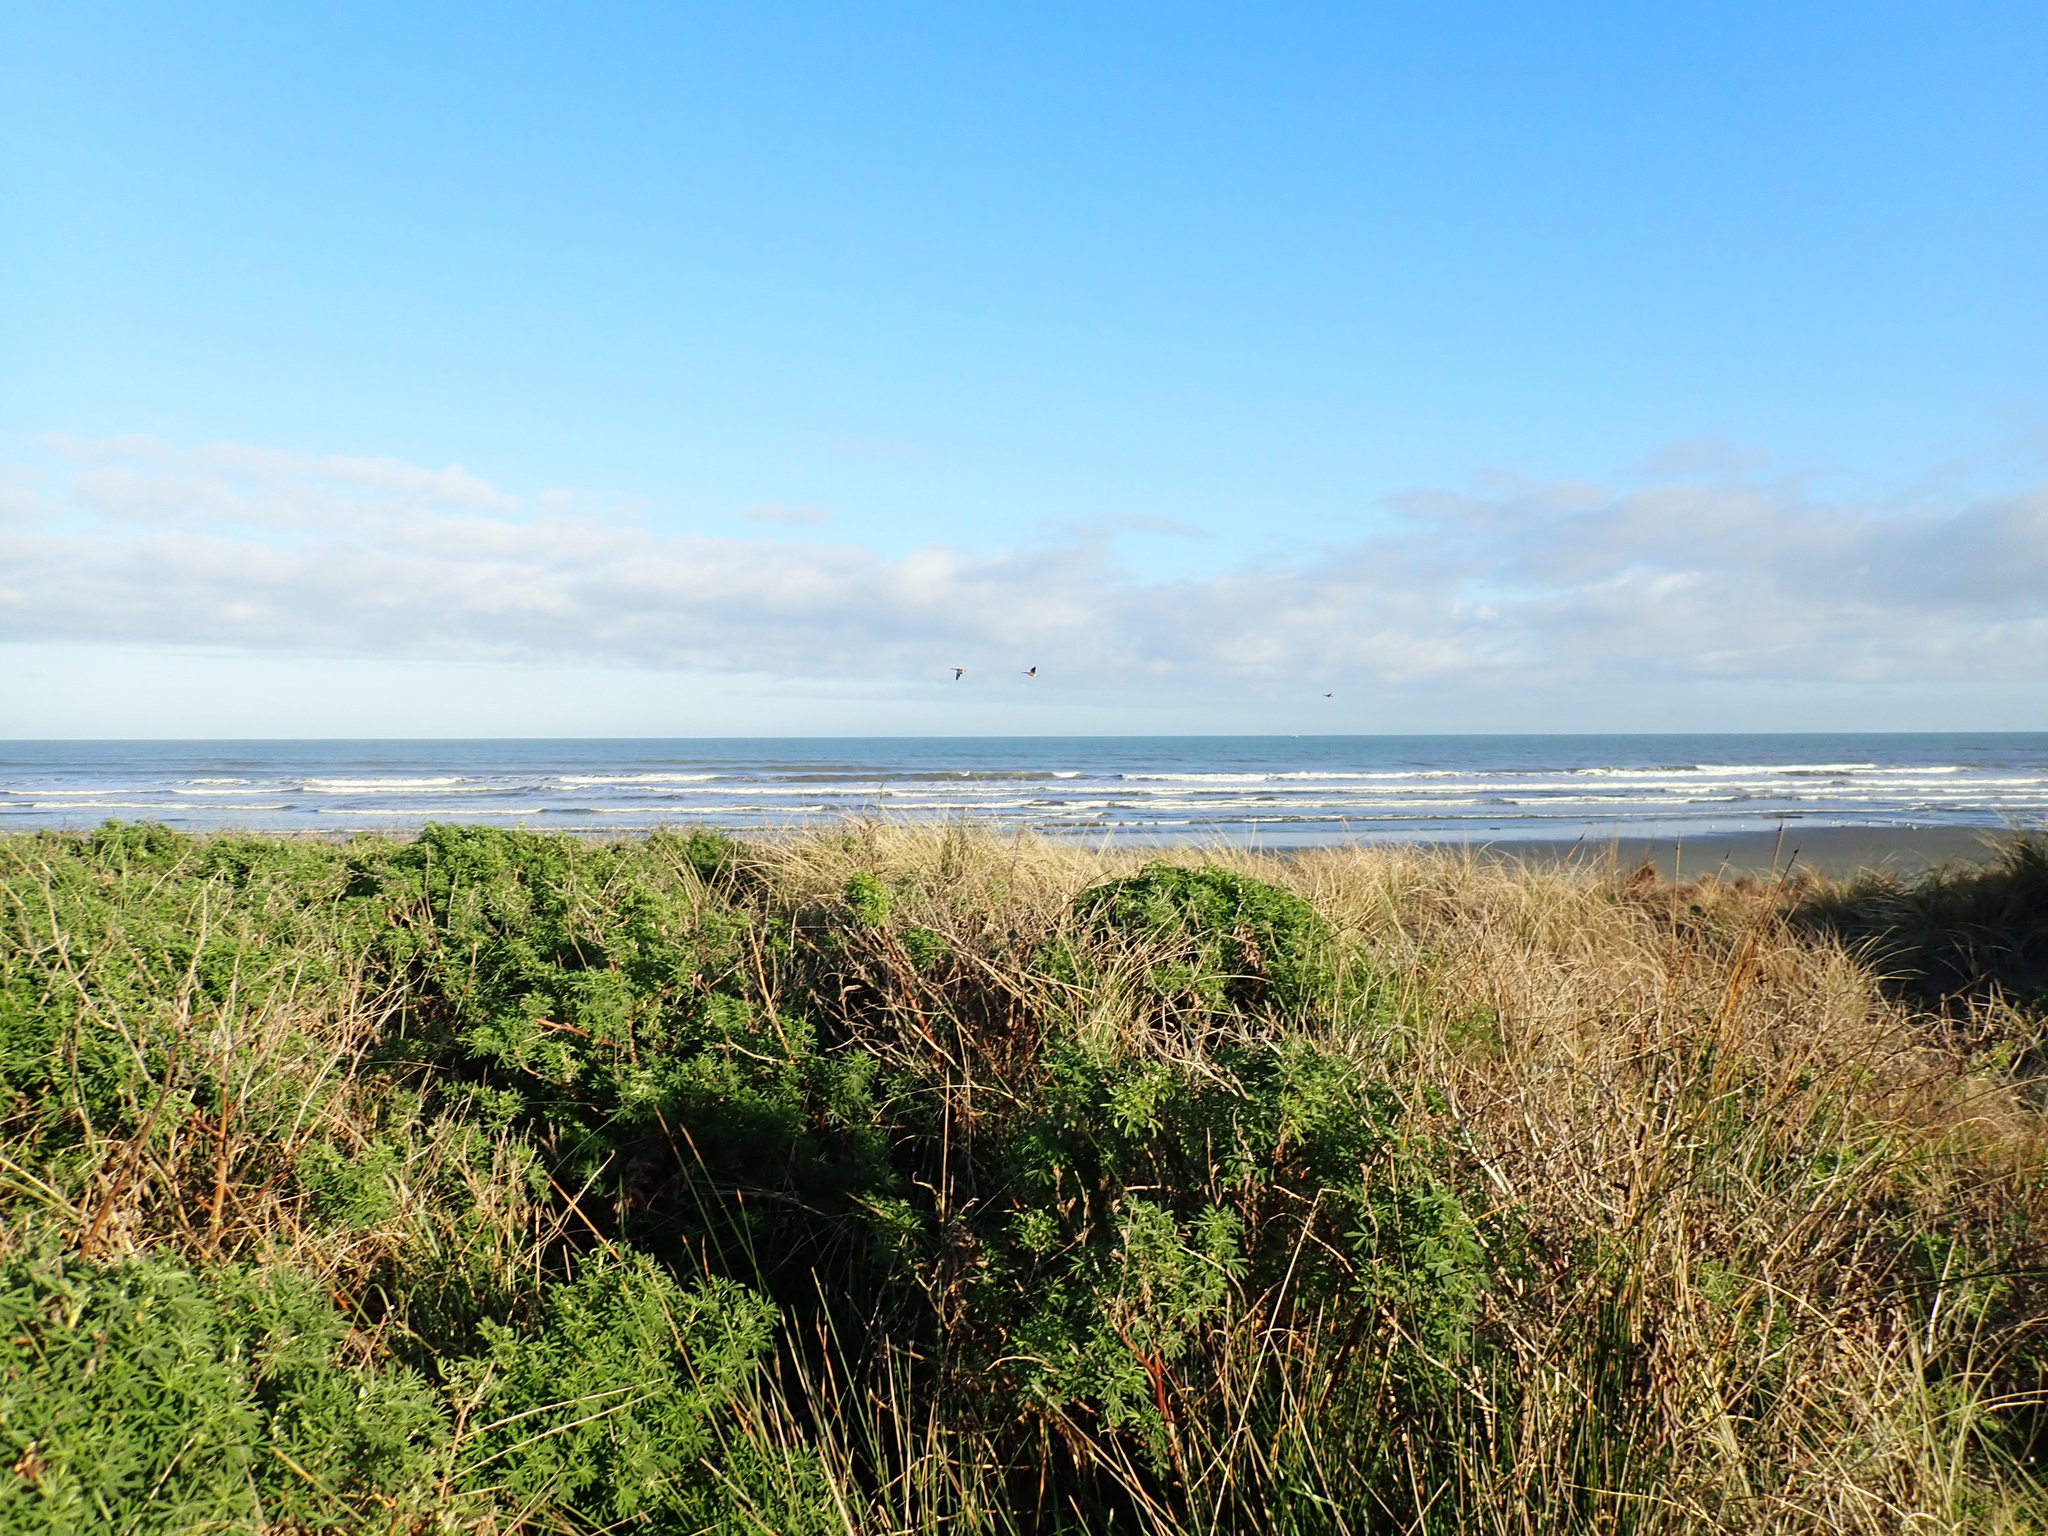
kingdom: Plantae
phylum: Tracheophyta
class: Magnoliopsida
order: Fabales
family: Fabaceae
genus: Lupinus
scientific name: Lupinus arboreus
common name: Yellow bush lupine
